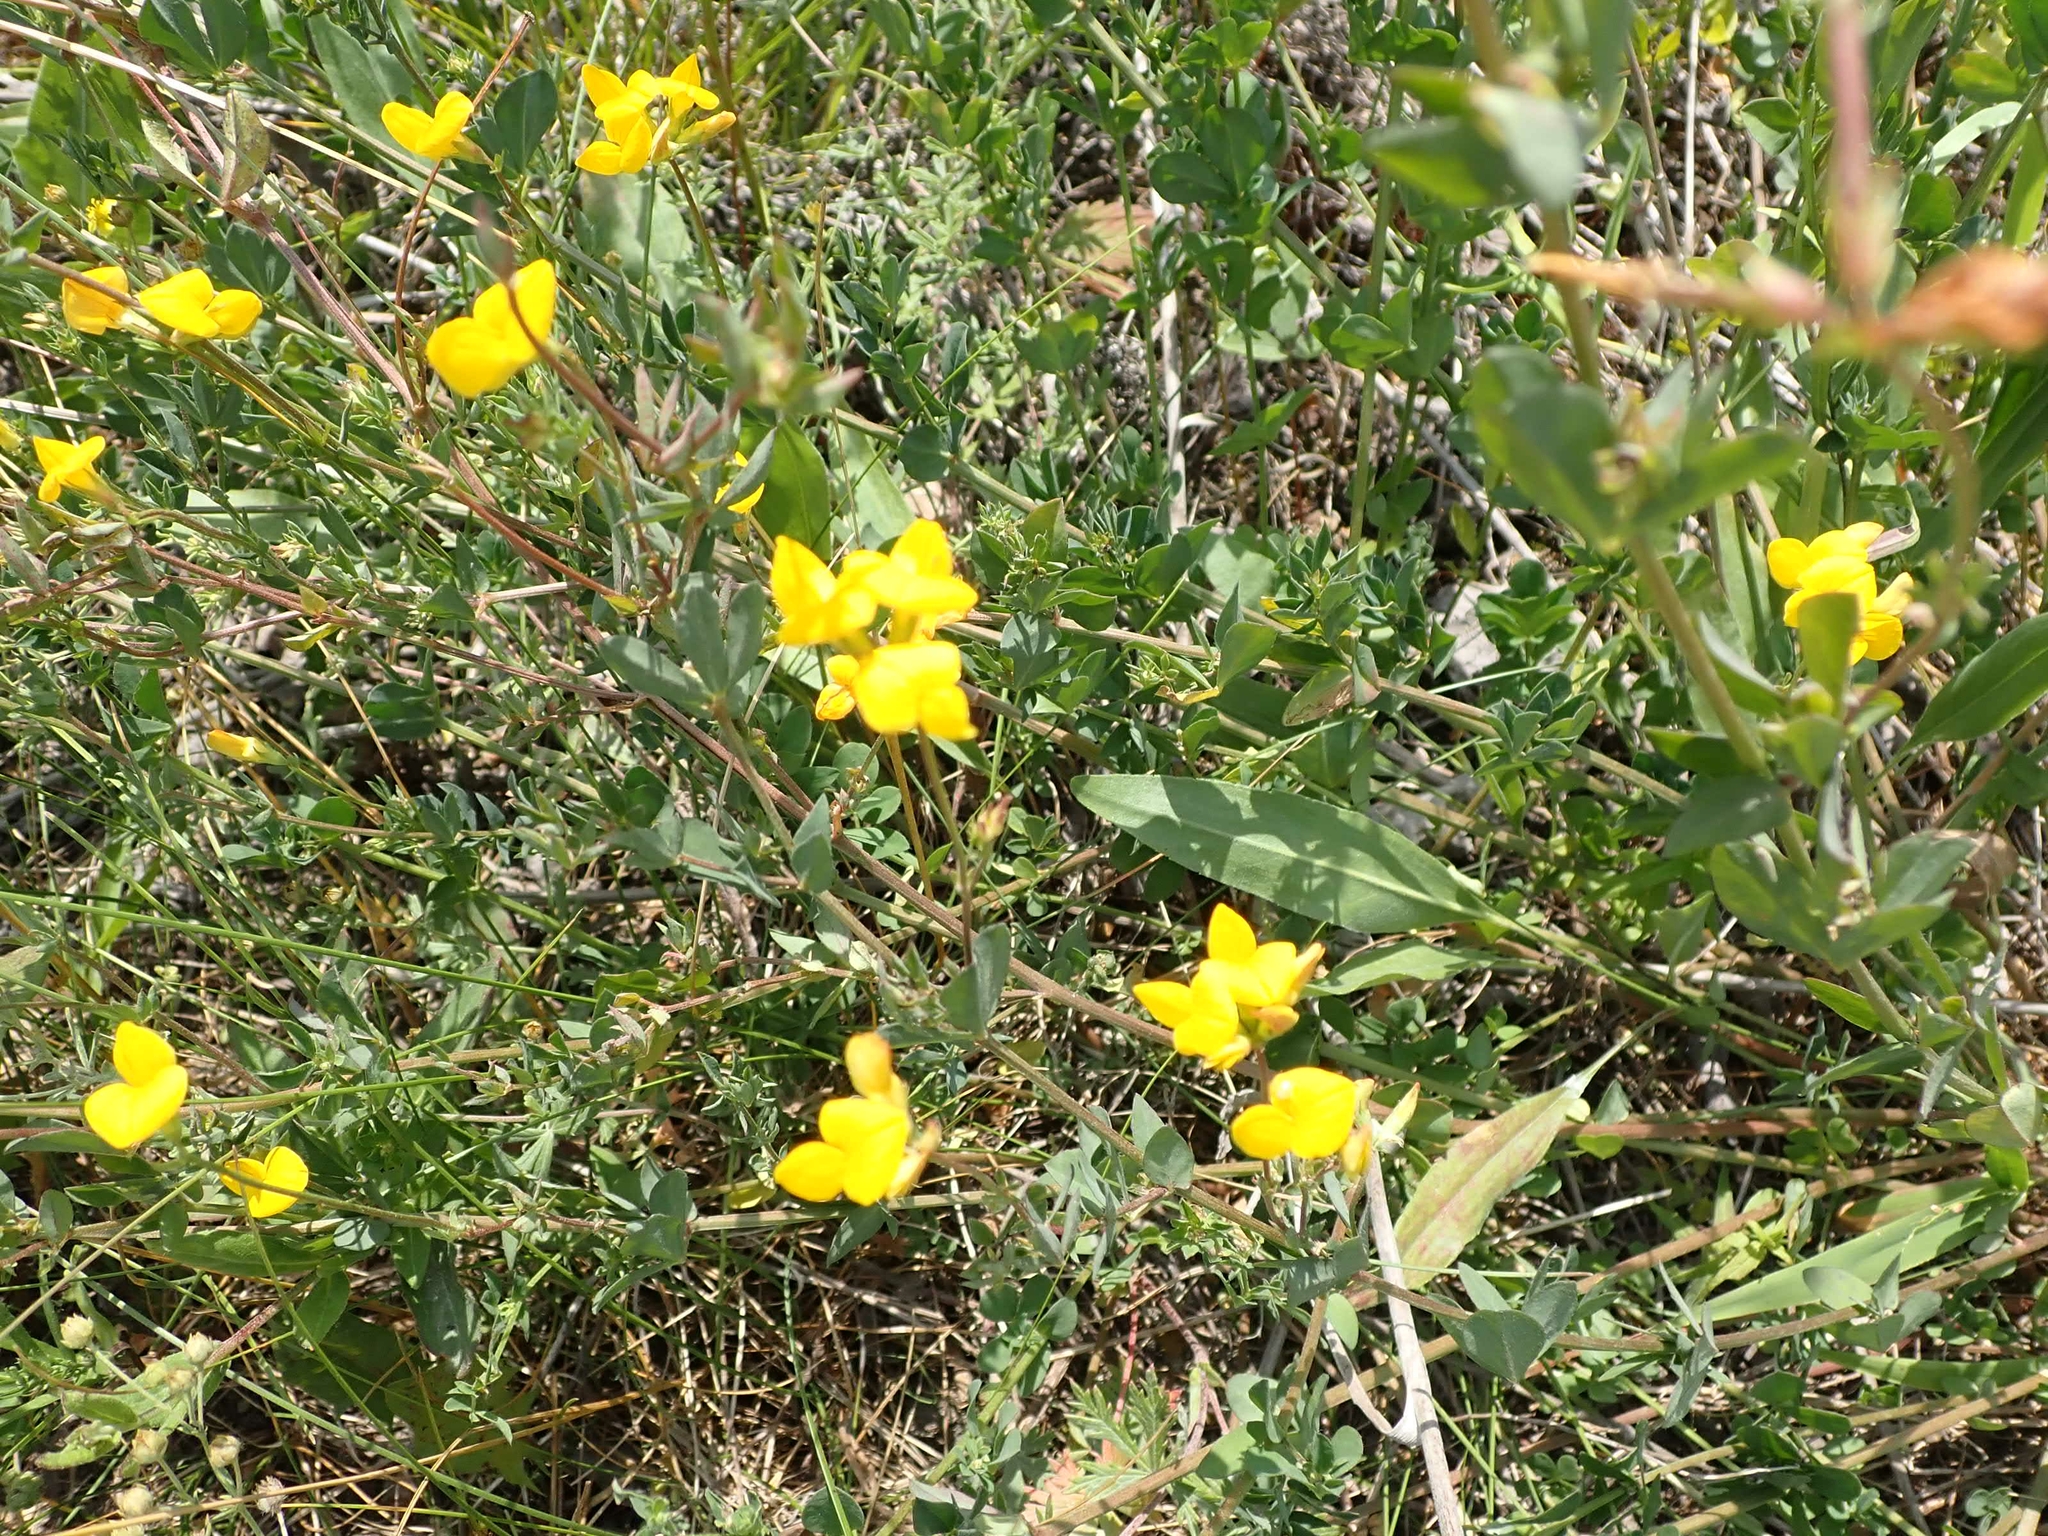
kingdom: Plantae
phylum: Tracheophyta
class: Magnoliopsida
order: Fabales
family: Fabaceae
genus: Lotus
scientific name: Lotus corniculatus
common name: Common bird's-foot-trefoil
